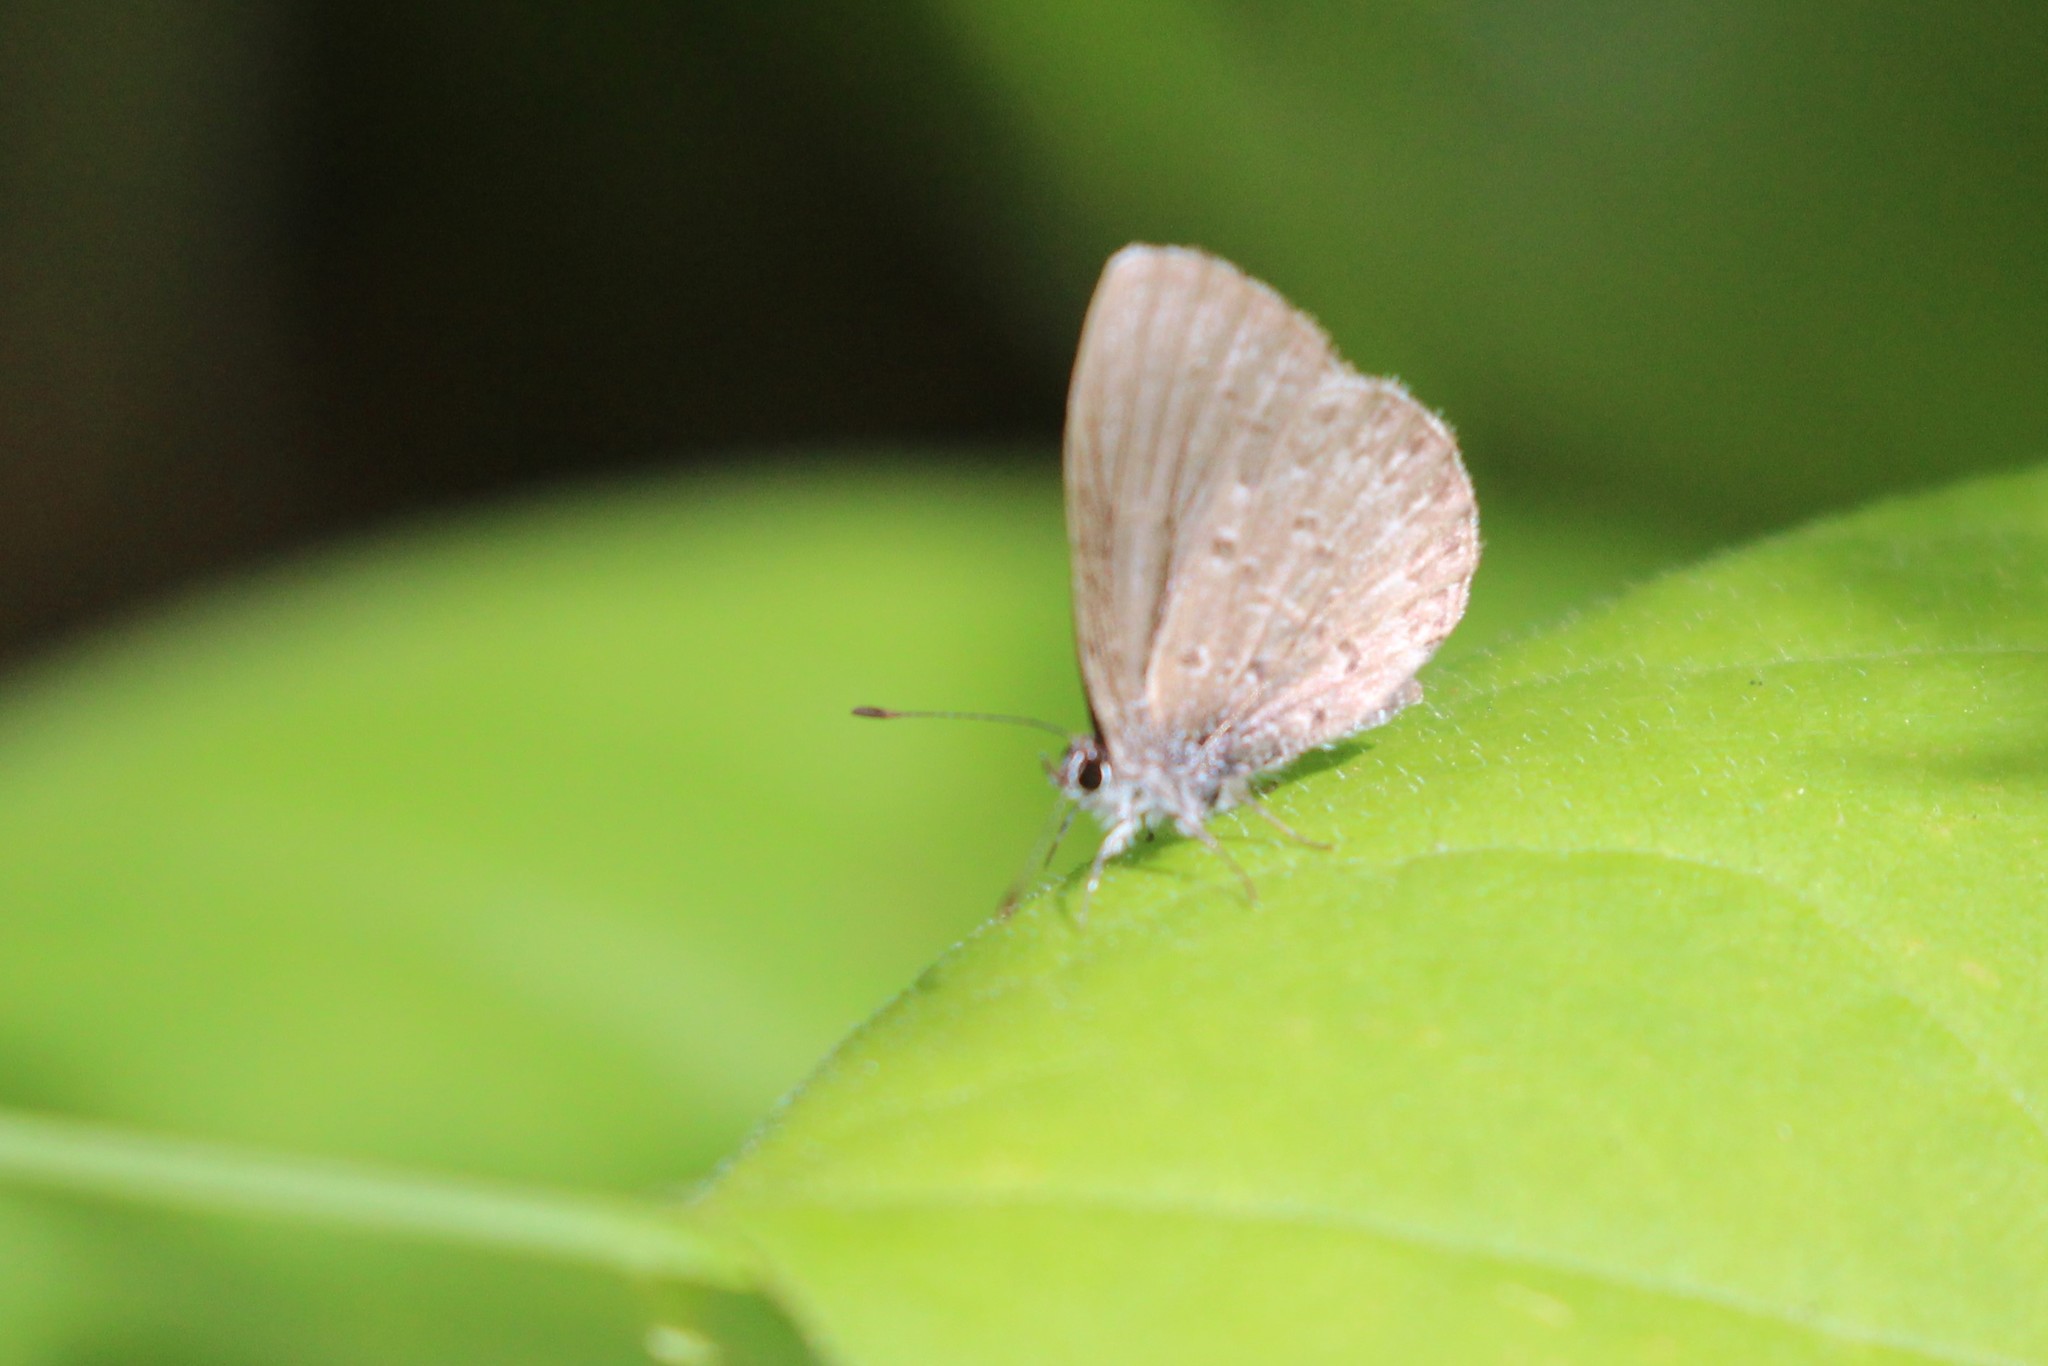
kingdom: Animalia
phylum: Arthropoda
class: Insecta
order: Lepidoptera
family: Lycaenidae
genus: Celastrina
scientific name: Celastrina lucia
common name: Lucia azure
